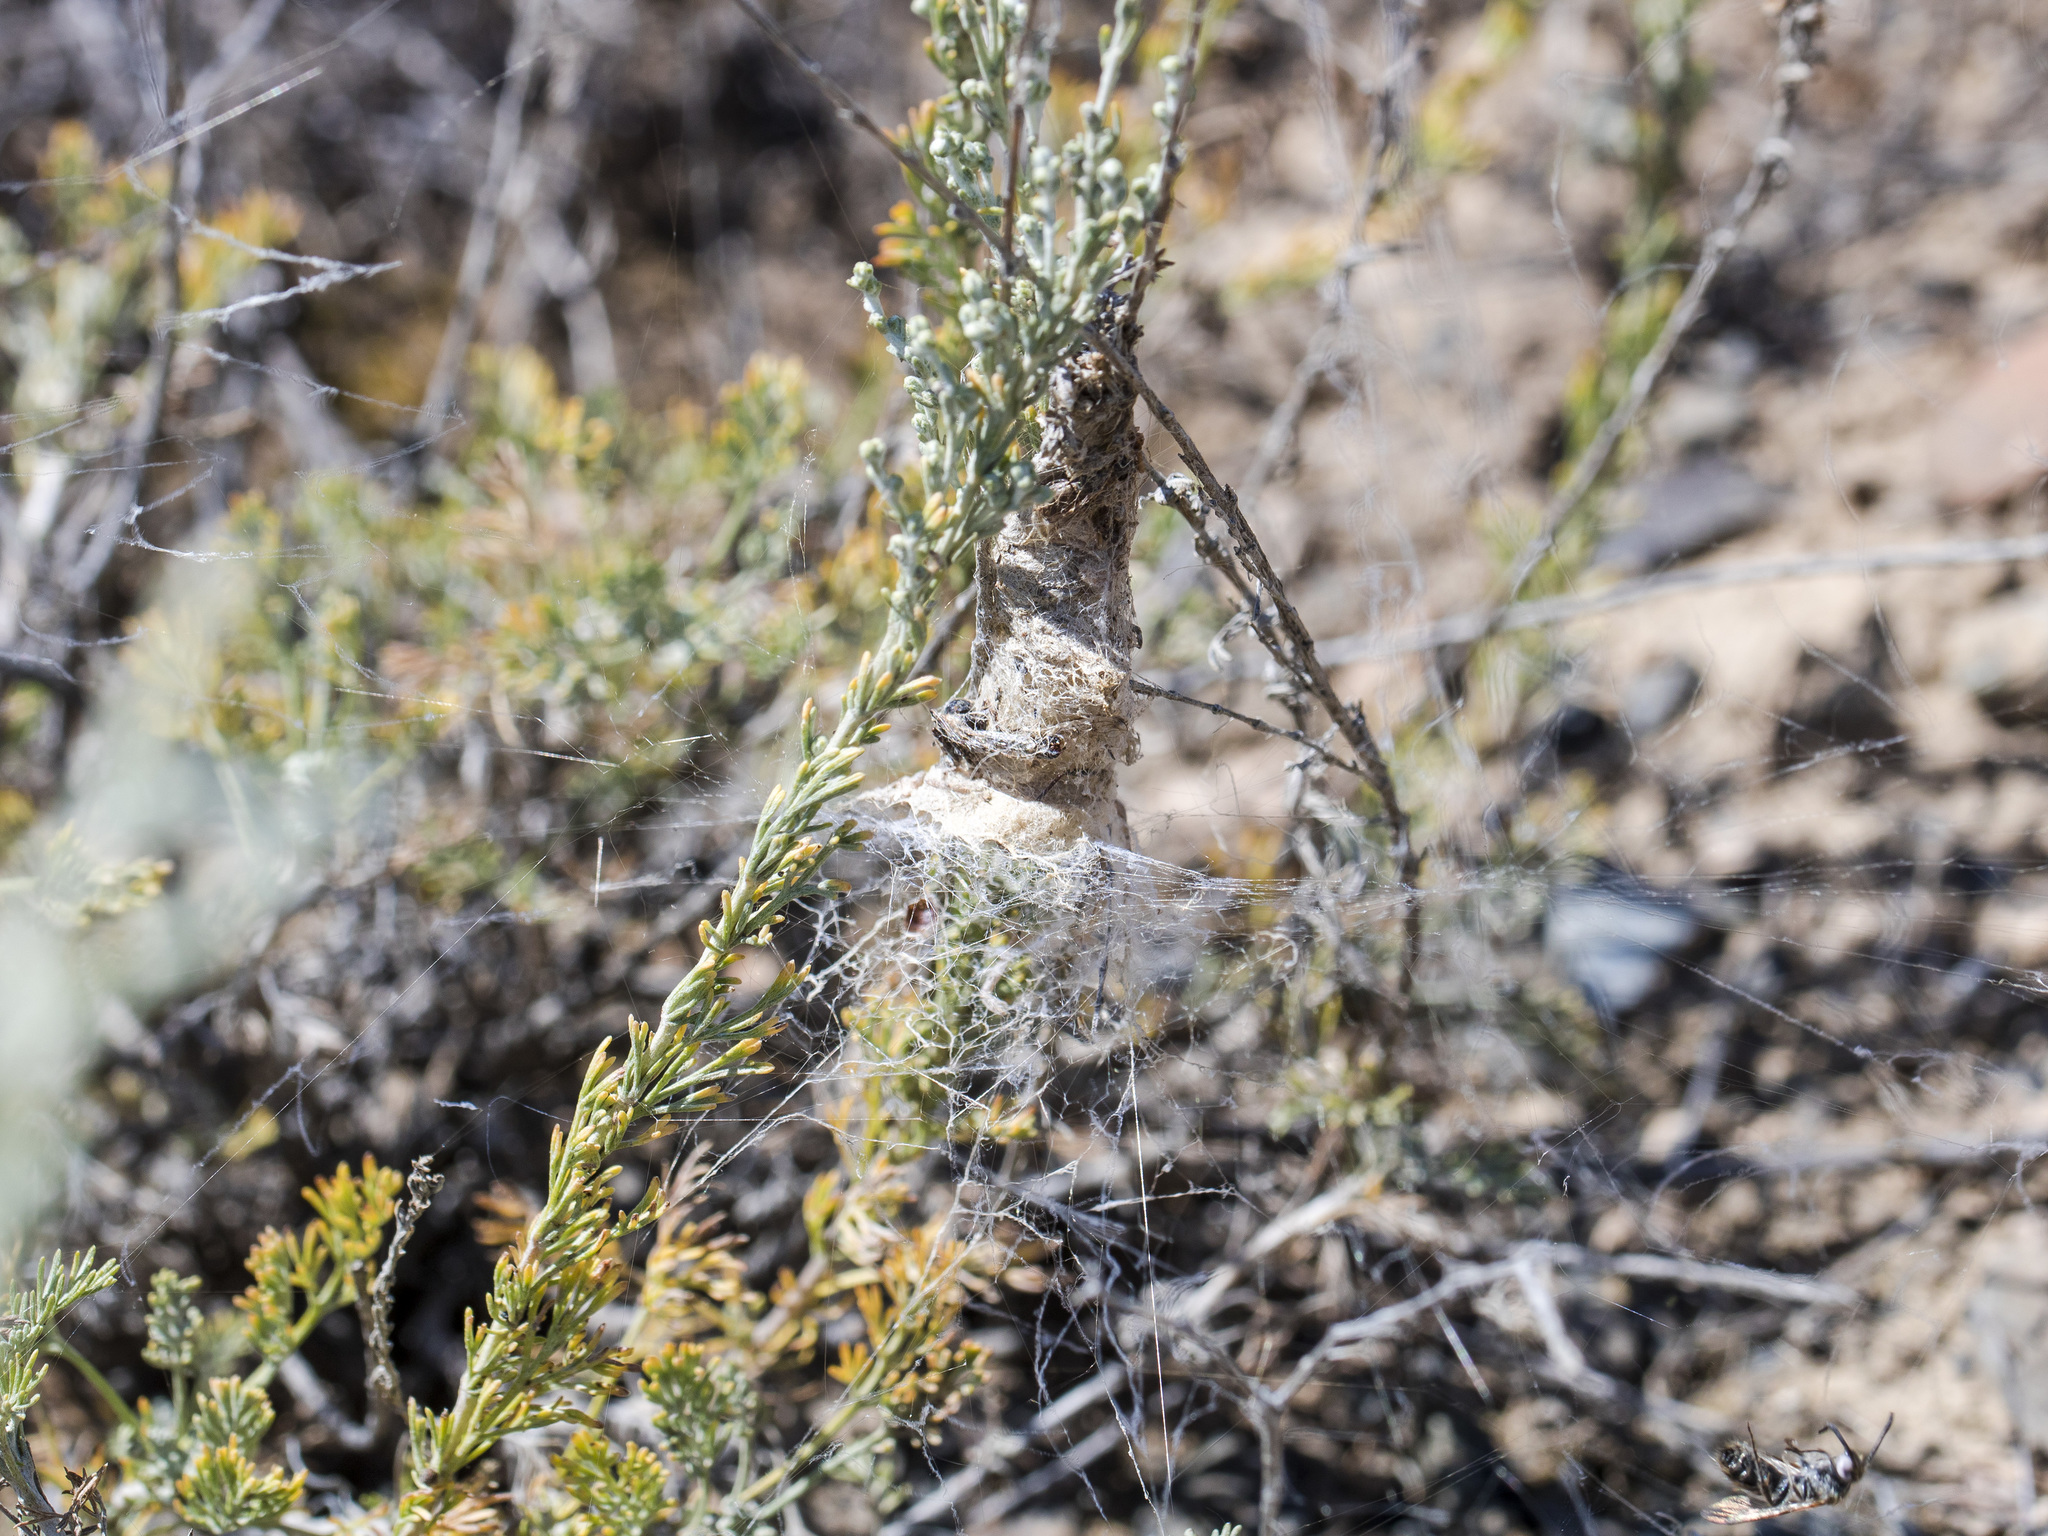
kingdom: Animalia
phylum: Arthropoda
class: Arachnida
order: Araneae
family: Eresidae
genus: Stegodyphus
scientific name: Stegodyphus lineatus
